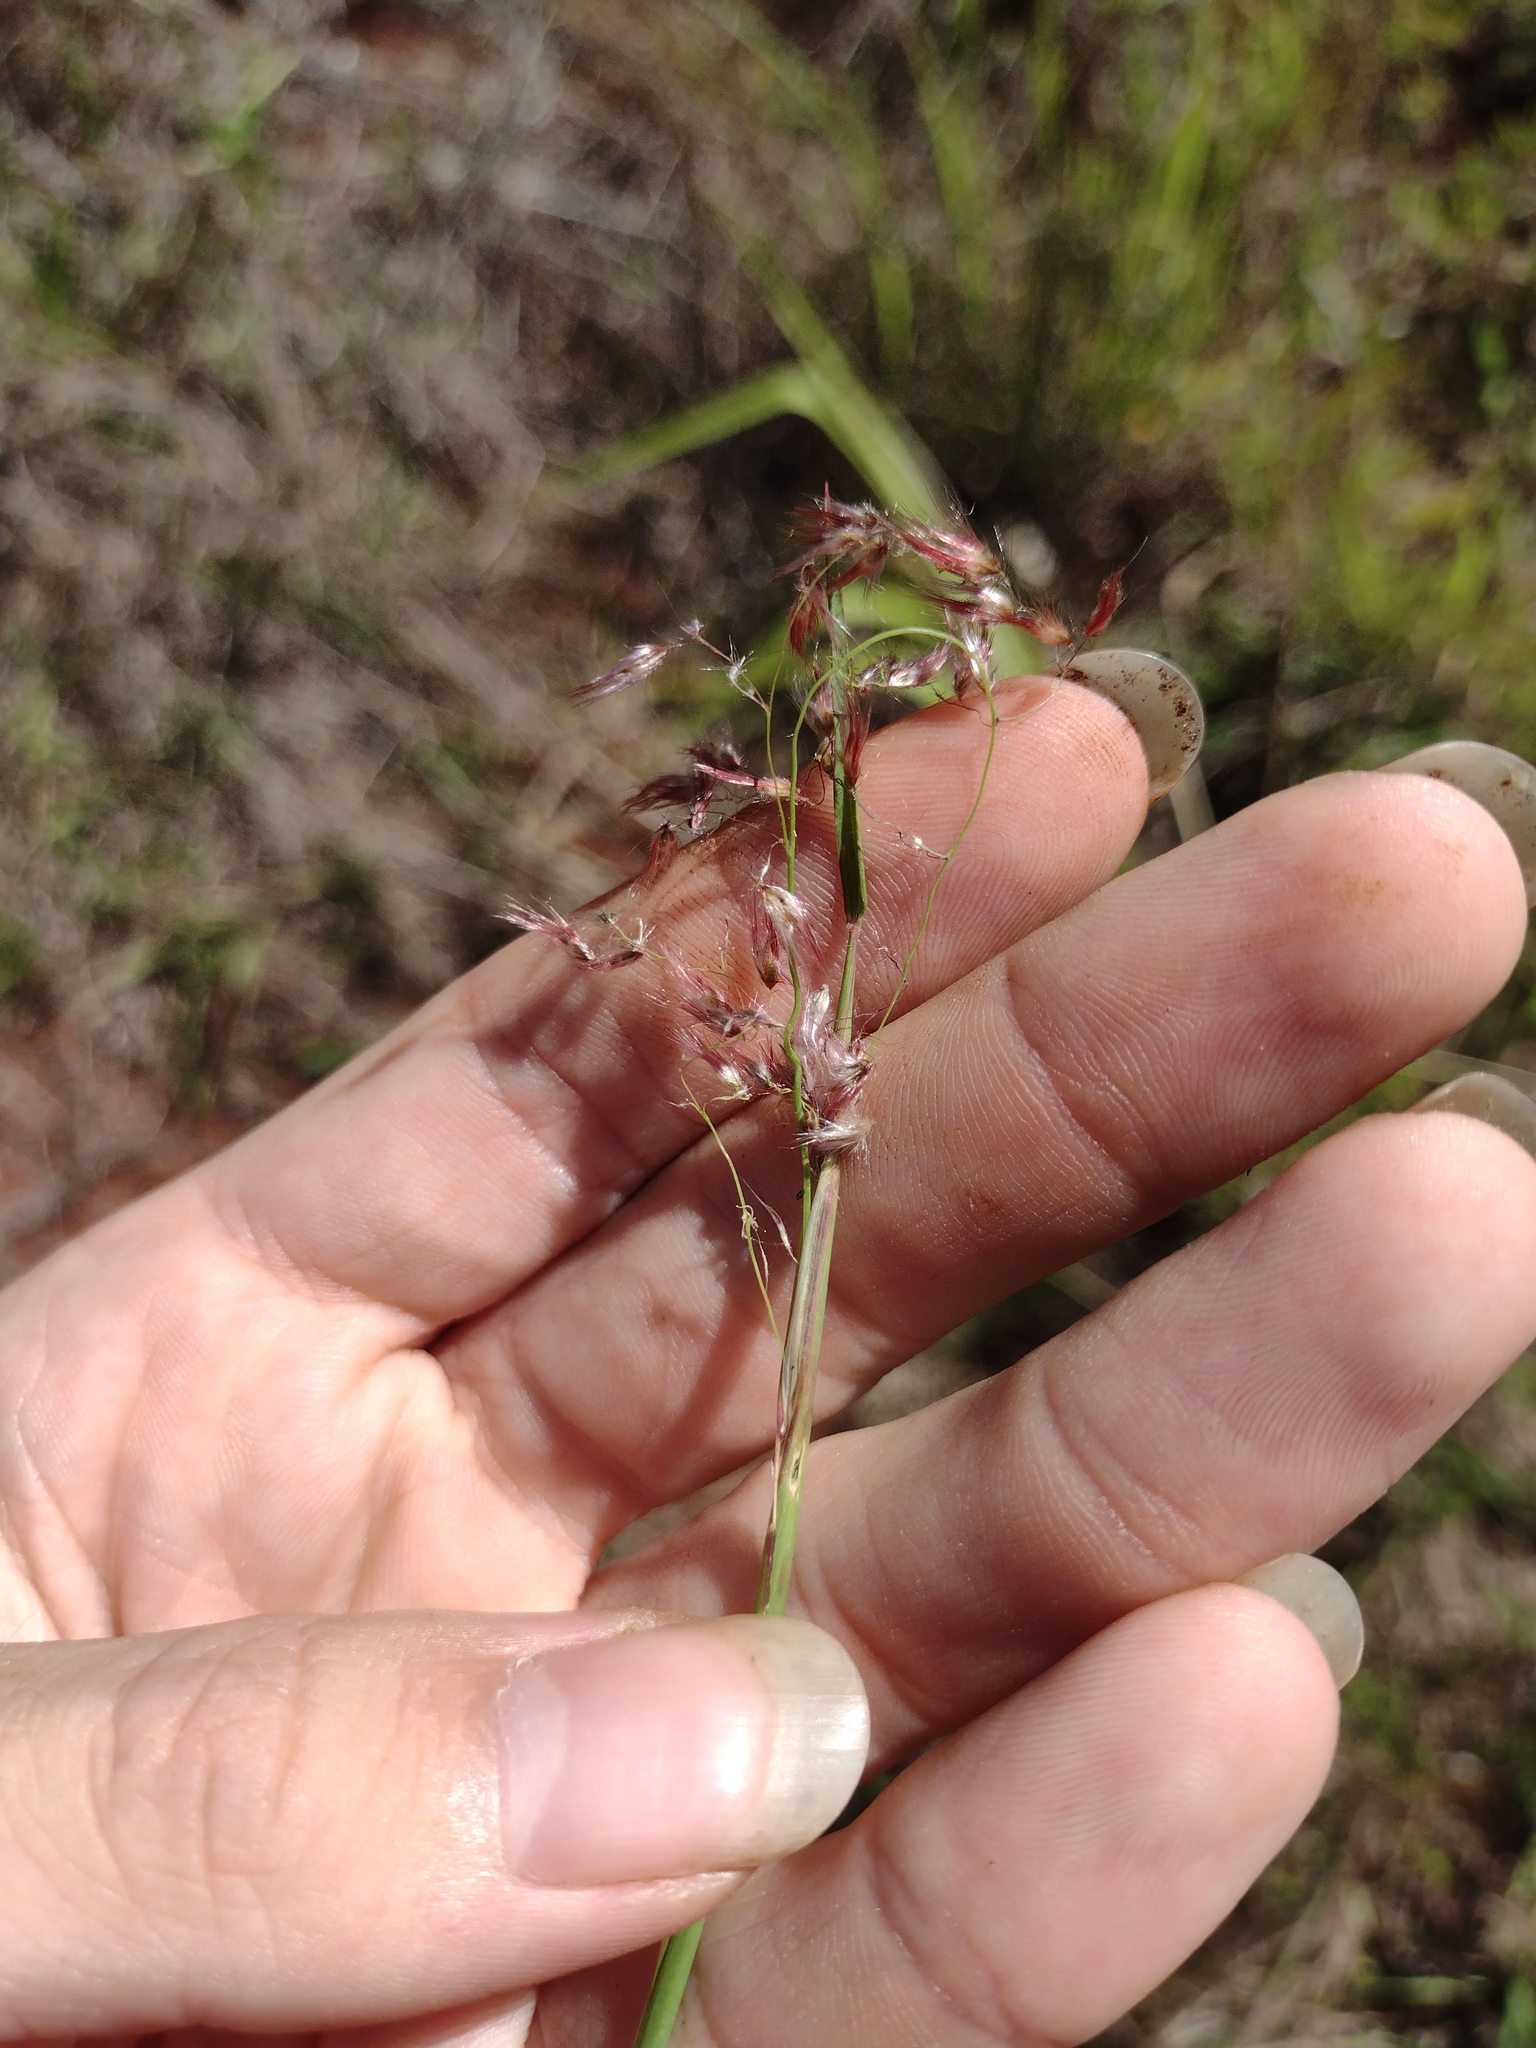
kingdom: Plantae
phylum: Tracheophyta
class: Liliopsida
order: Poales
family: Poaceae
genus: Melinis
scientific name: Melinis repens
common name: Rose natal grass
